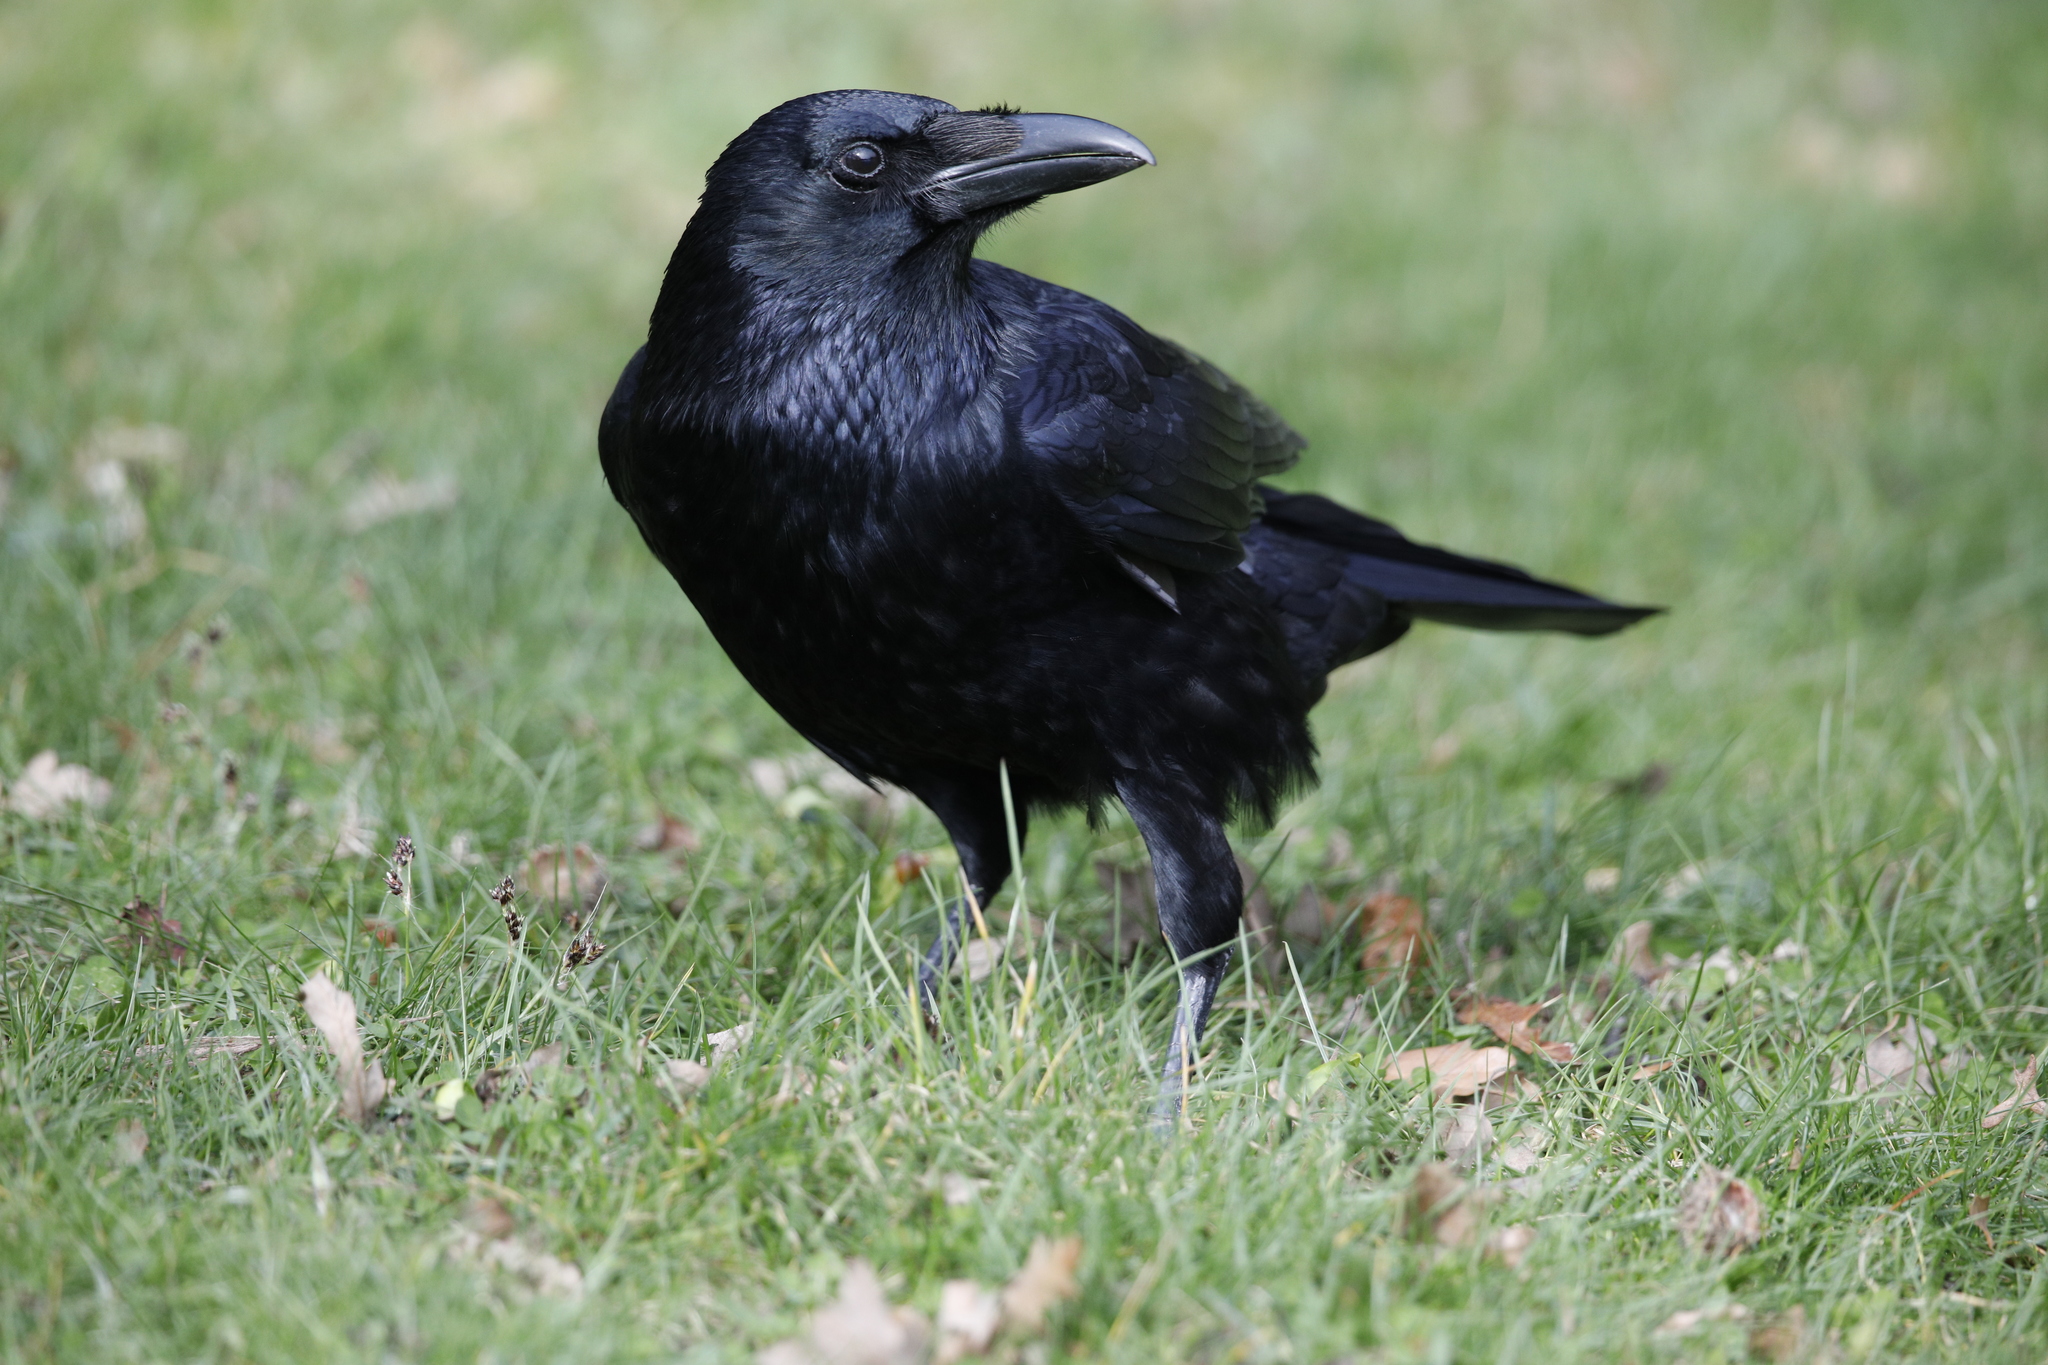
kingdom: Animalia
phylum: Chordata
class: Aves
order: Passeriformes
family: Corvidae
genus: Corvus
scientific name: Corvus corone
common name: Carrion crow
